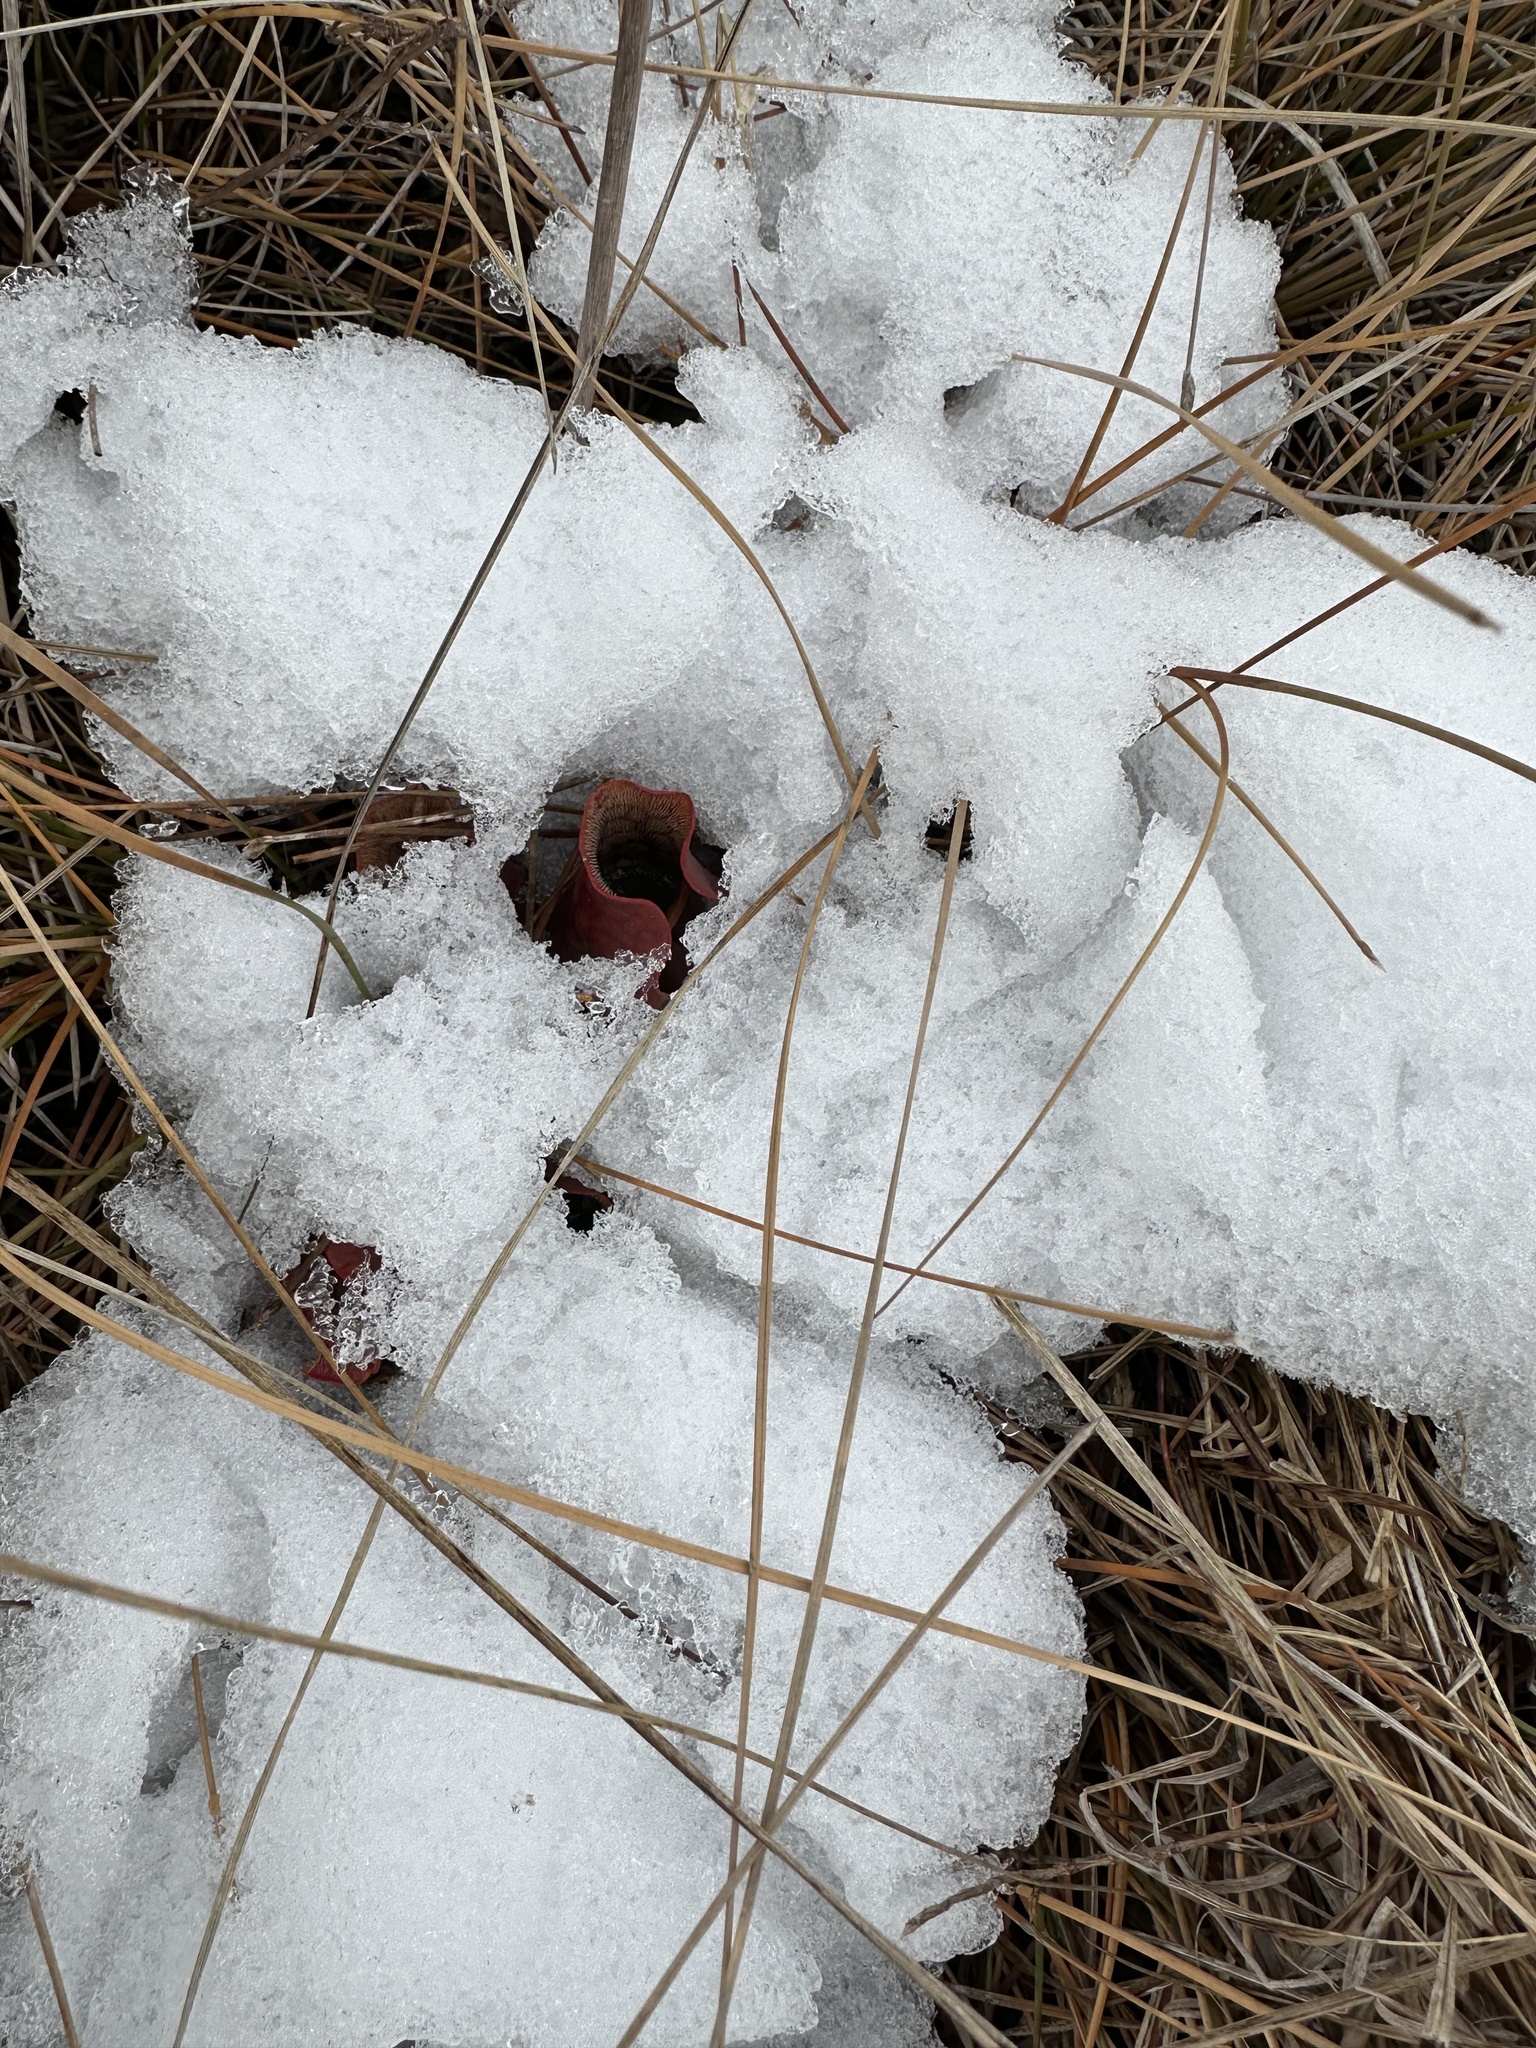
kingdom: Plantae
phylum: Tracheophyta
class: Magnoliopsida
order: Ericales
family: Sarraceniaceae
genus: Sarracenia
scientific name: Sarracenia purpurea
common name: Pitcherplant
